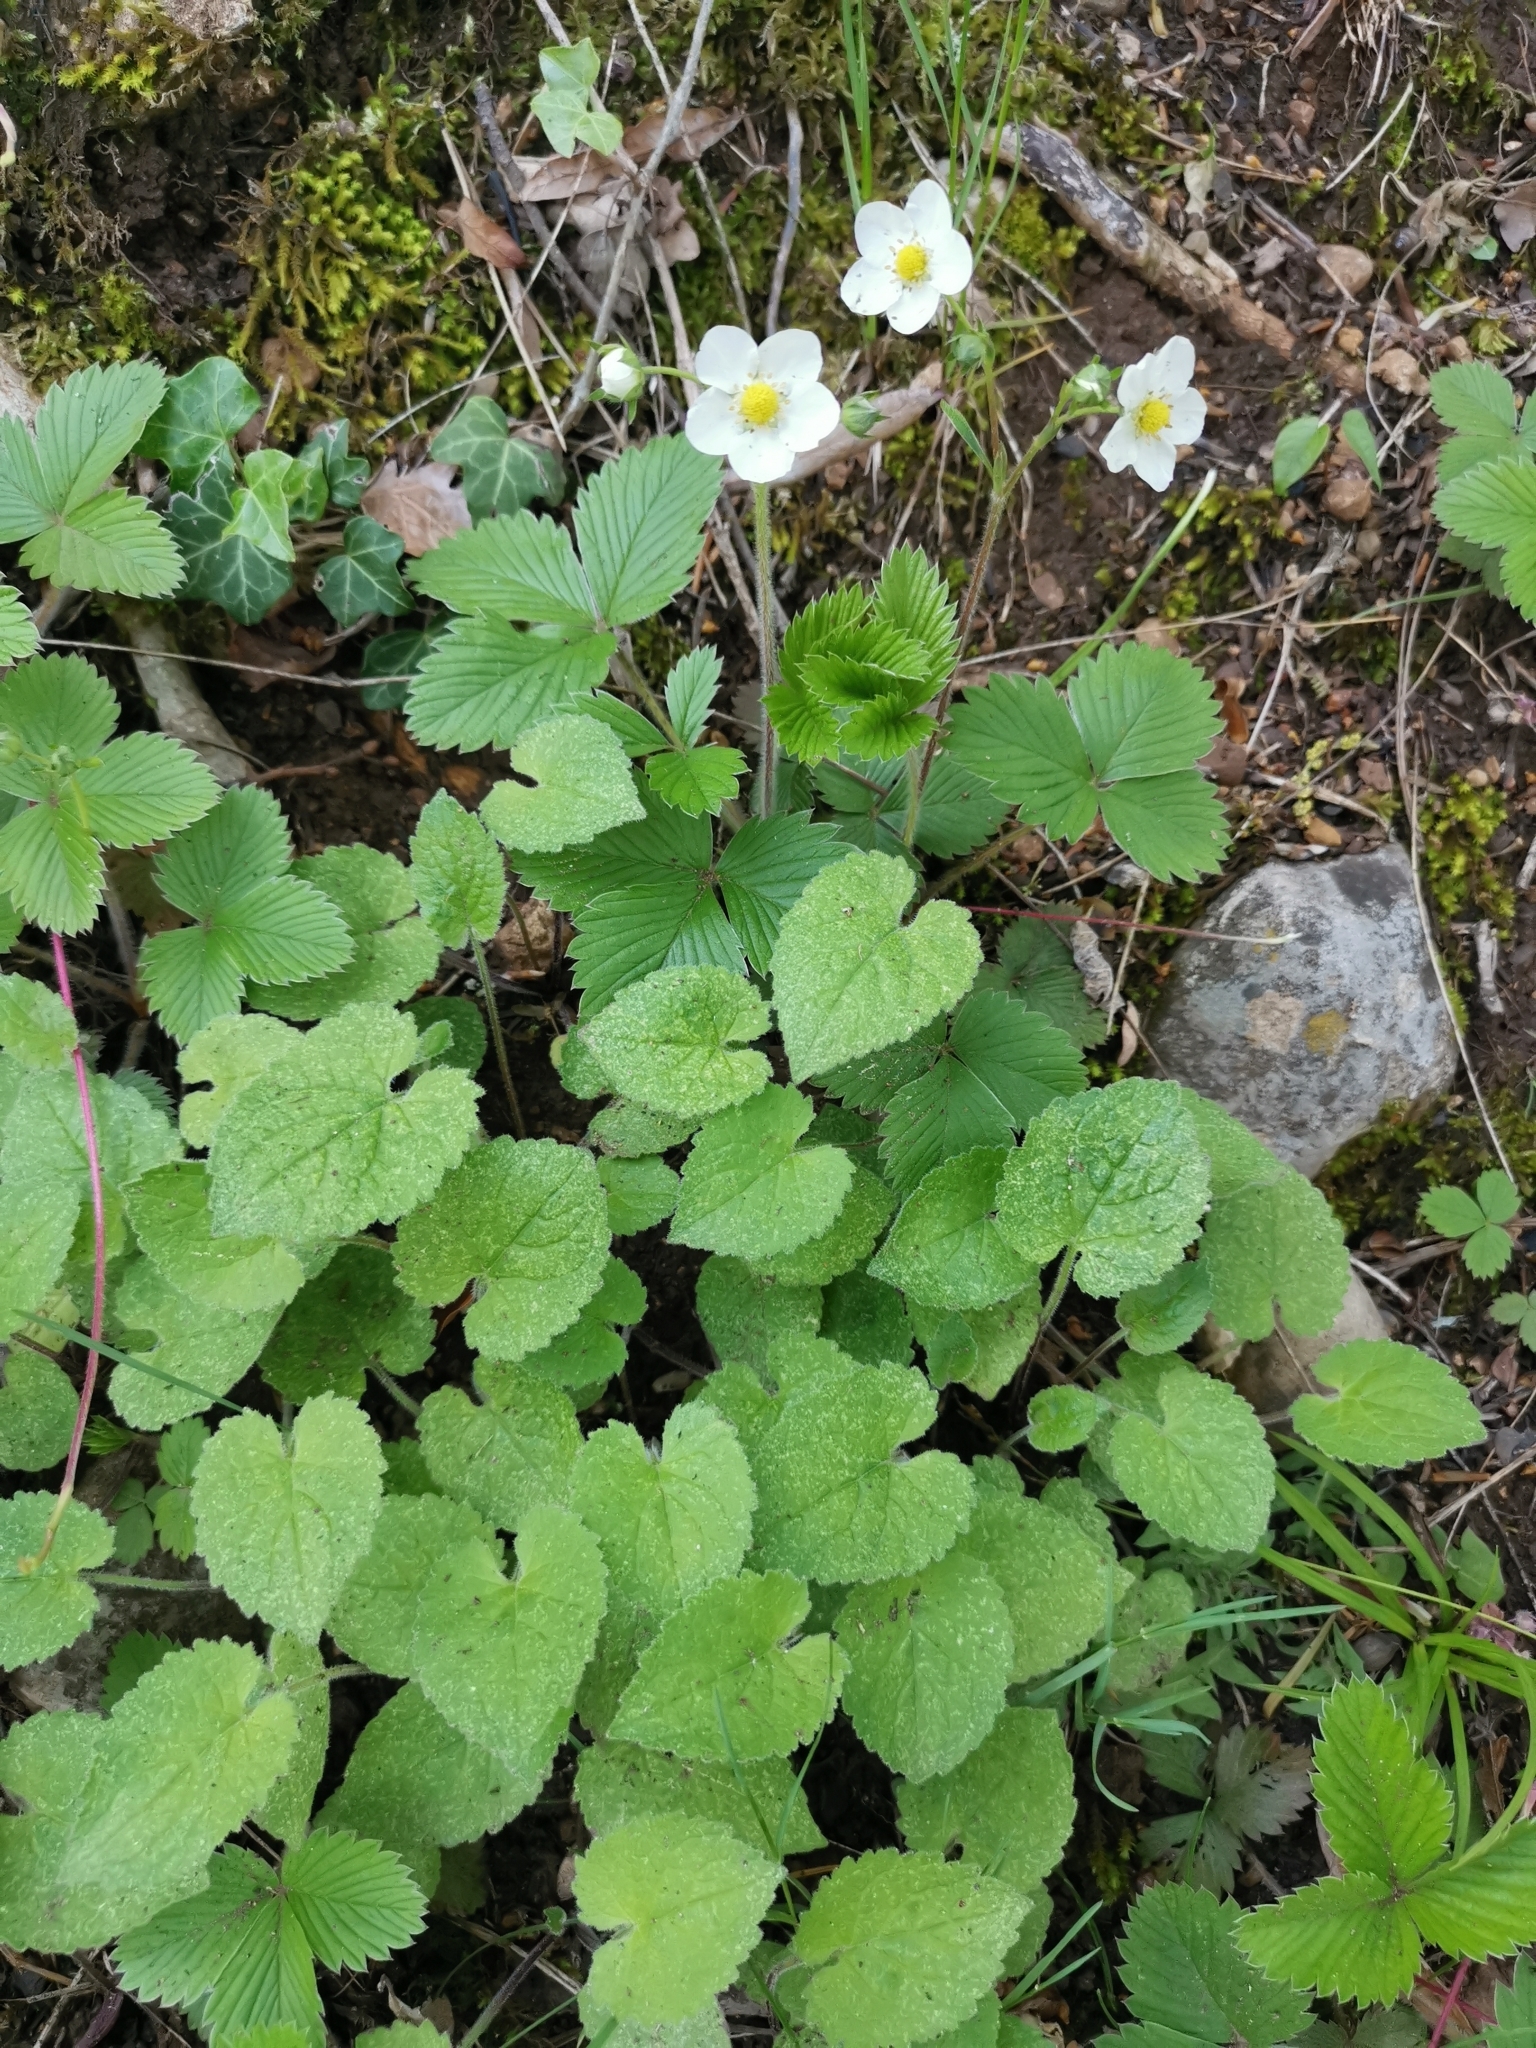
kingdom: Plantae
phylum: Tracheophyta
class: Magnoliopsida
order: Rosales
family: Rosaceae
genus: Fragaria
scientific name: Fragaria vesca
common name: Wild strawberry
